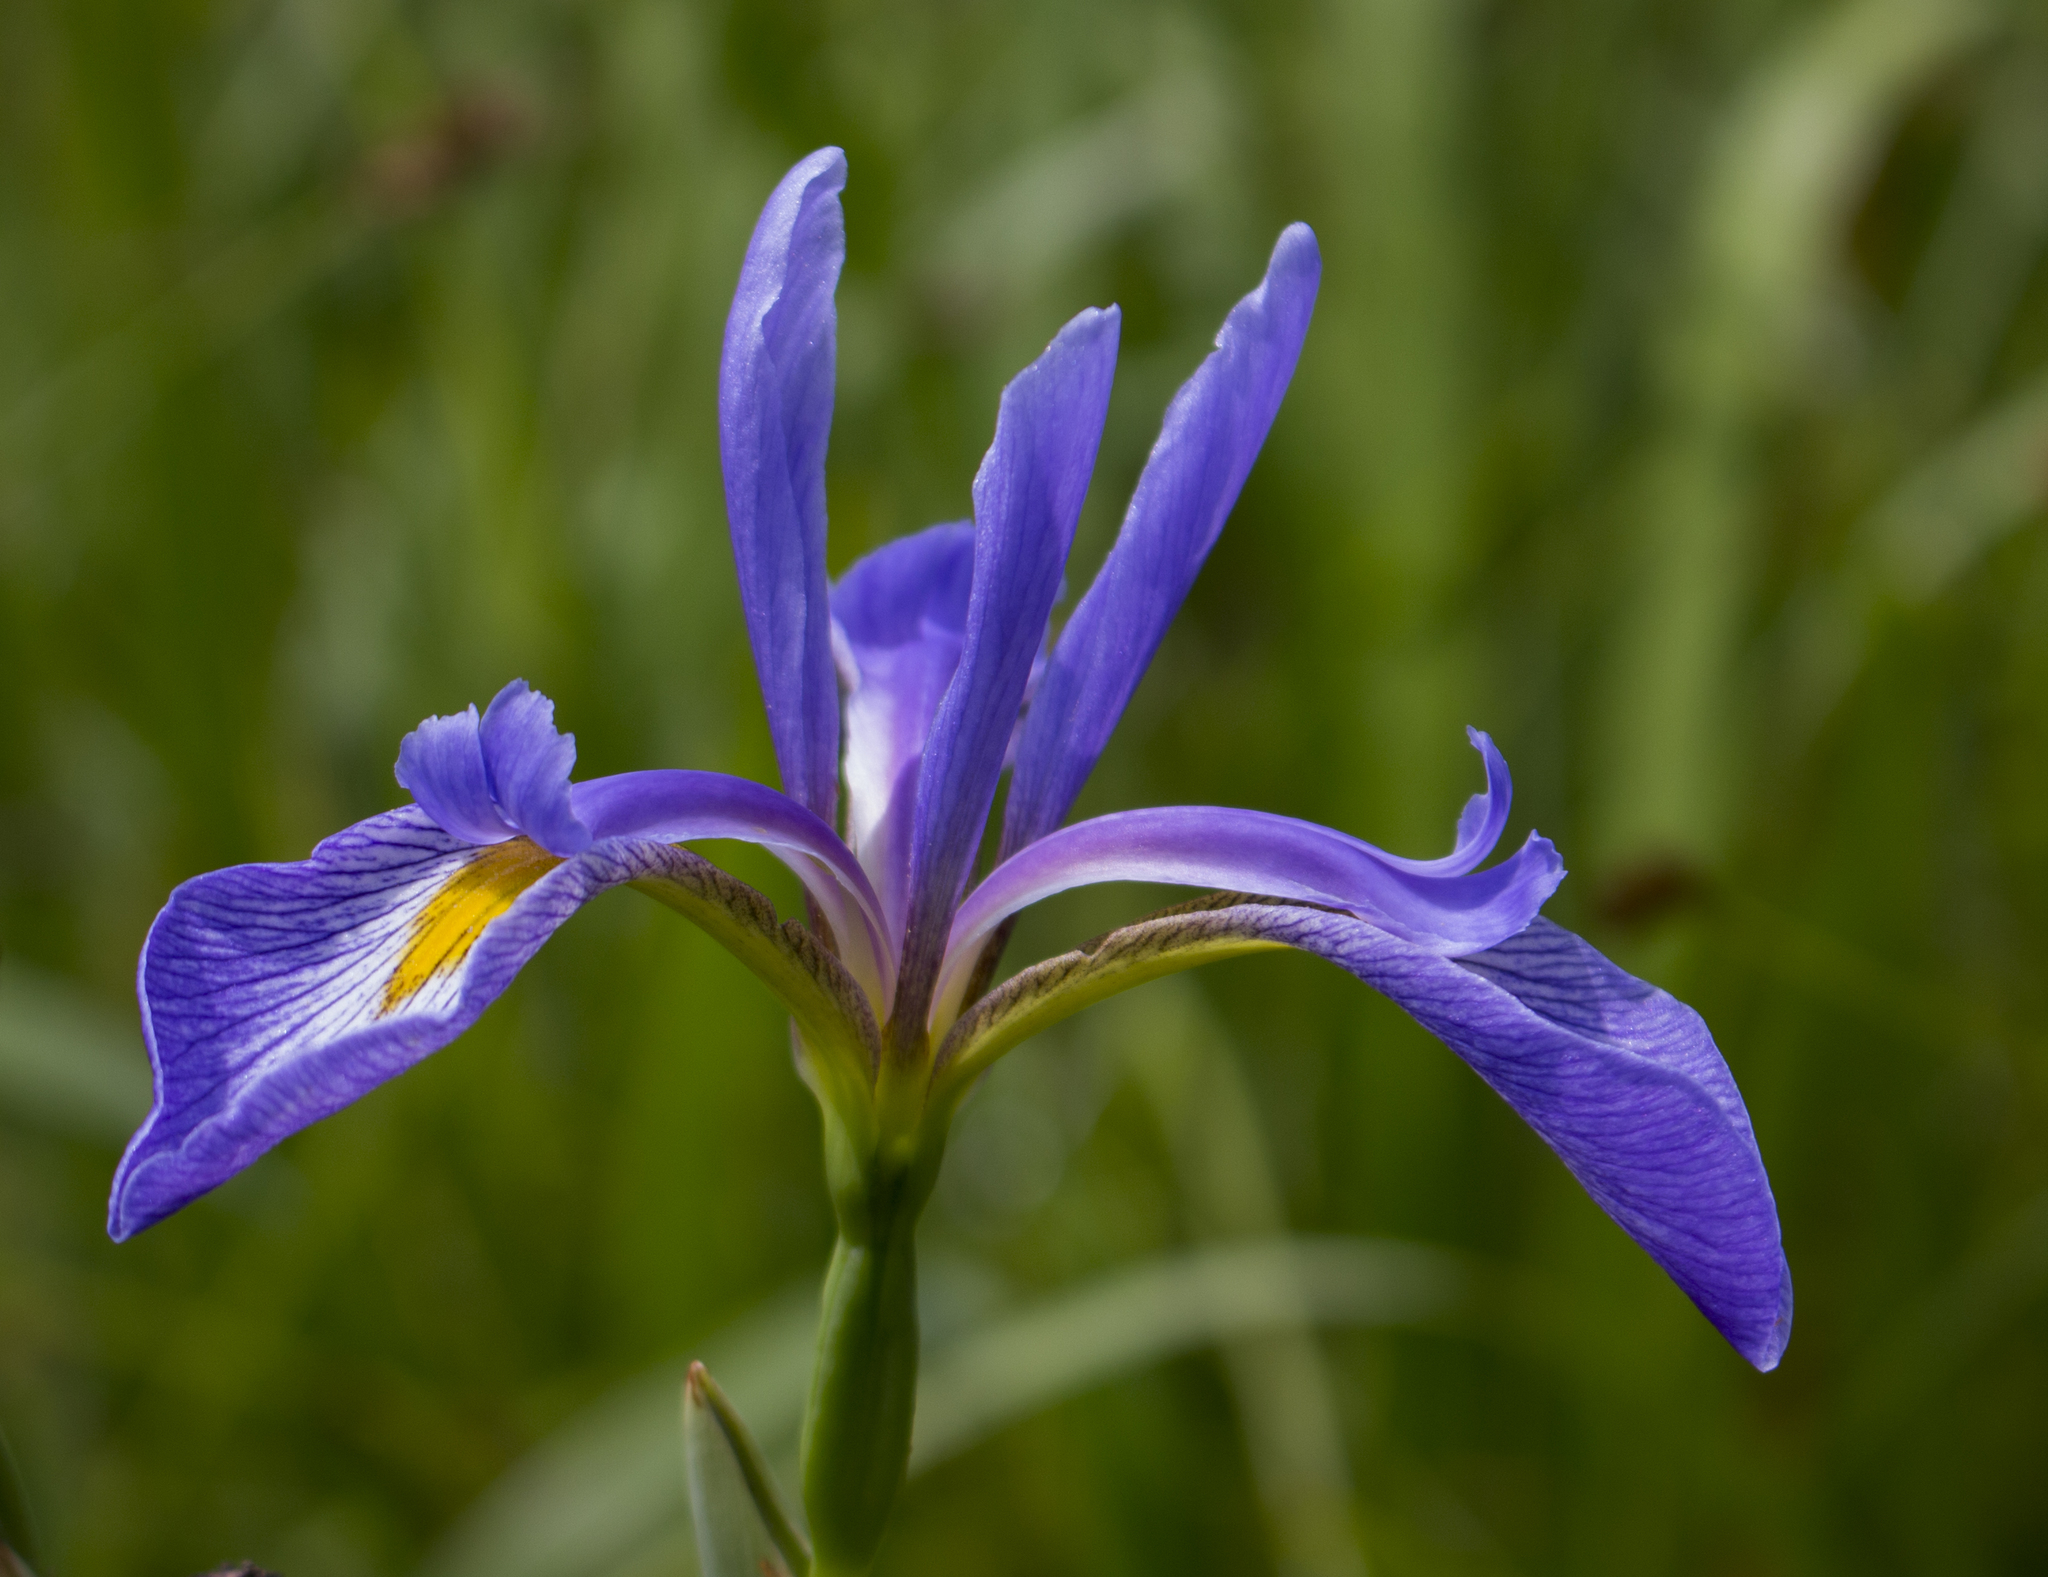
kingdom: Plantae
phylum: Tracheophyta
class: Liliopsida
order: Asparagales
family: Iridaceae
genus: Iris
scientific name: Iris virginica
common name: Southern blue flag
